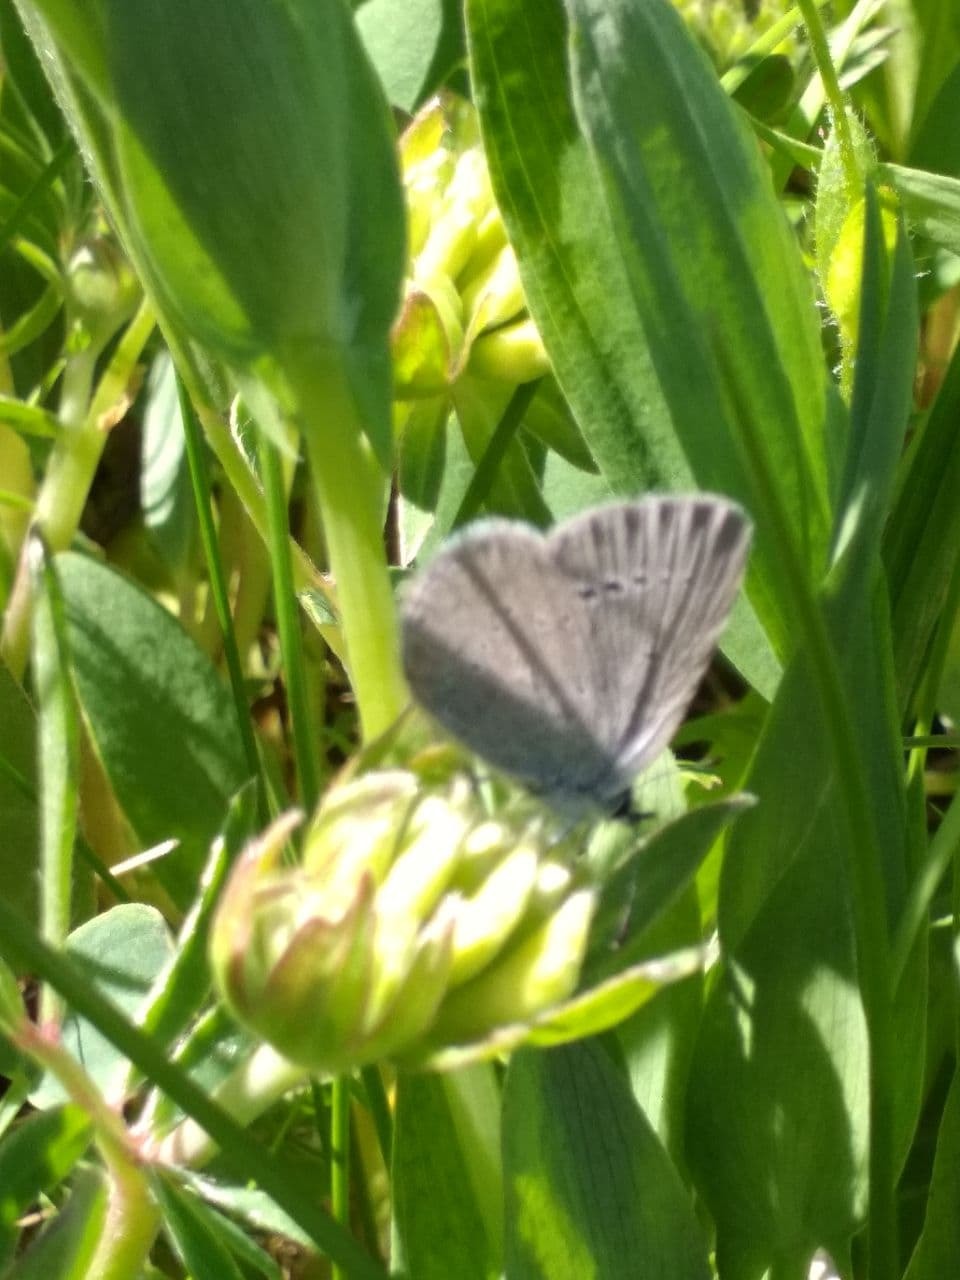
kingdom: Animalia
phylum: Arthropoda
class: Insecta
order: Lepidoptera
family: Lycaenidae
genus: Cupido
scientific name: Cupido minimus
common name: Small blue
